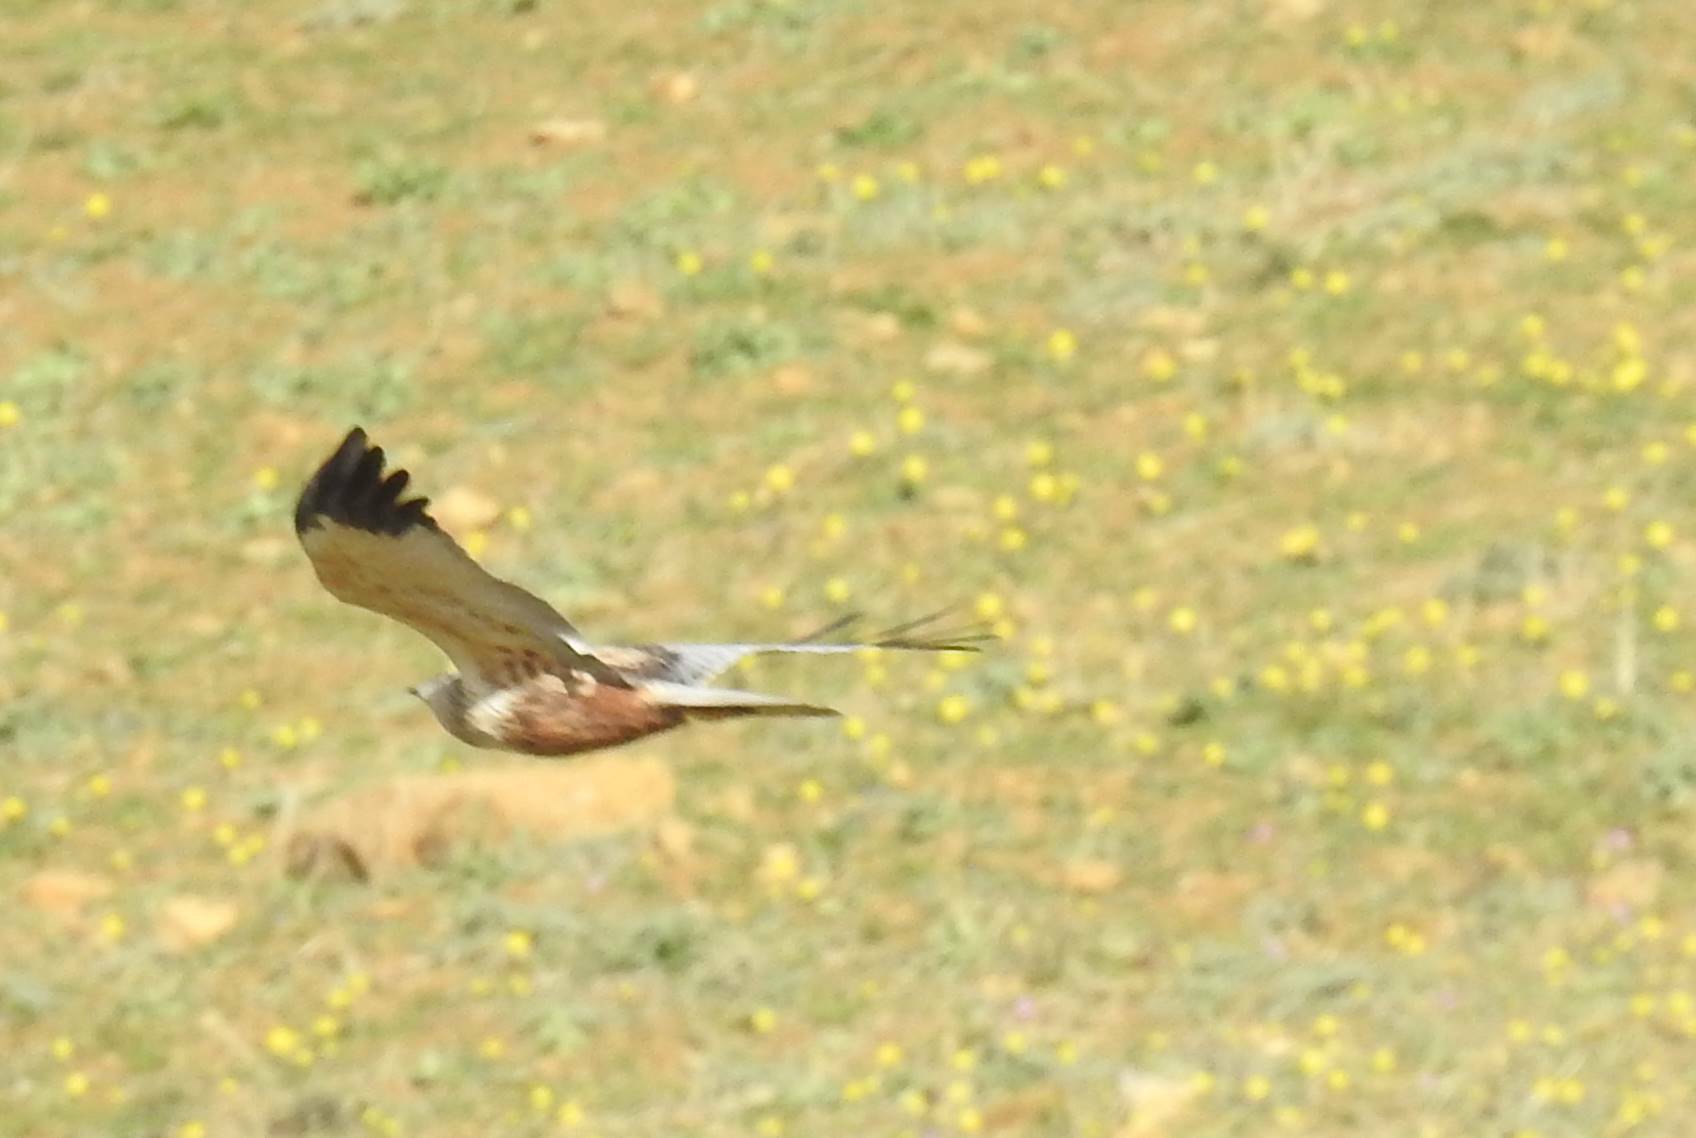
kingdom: Animalia
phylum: Chordata
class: Aves
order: Accipitriformes
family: Accipitridae
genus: Circus
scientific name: Circus aeruginosus
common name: Western marsh harrier
